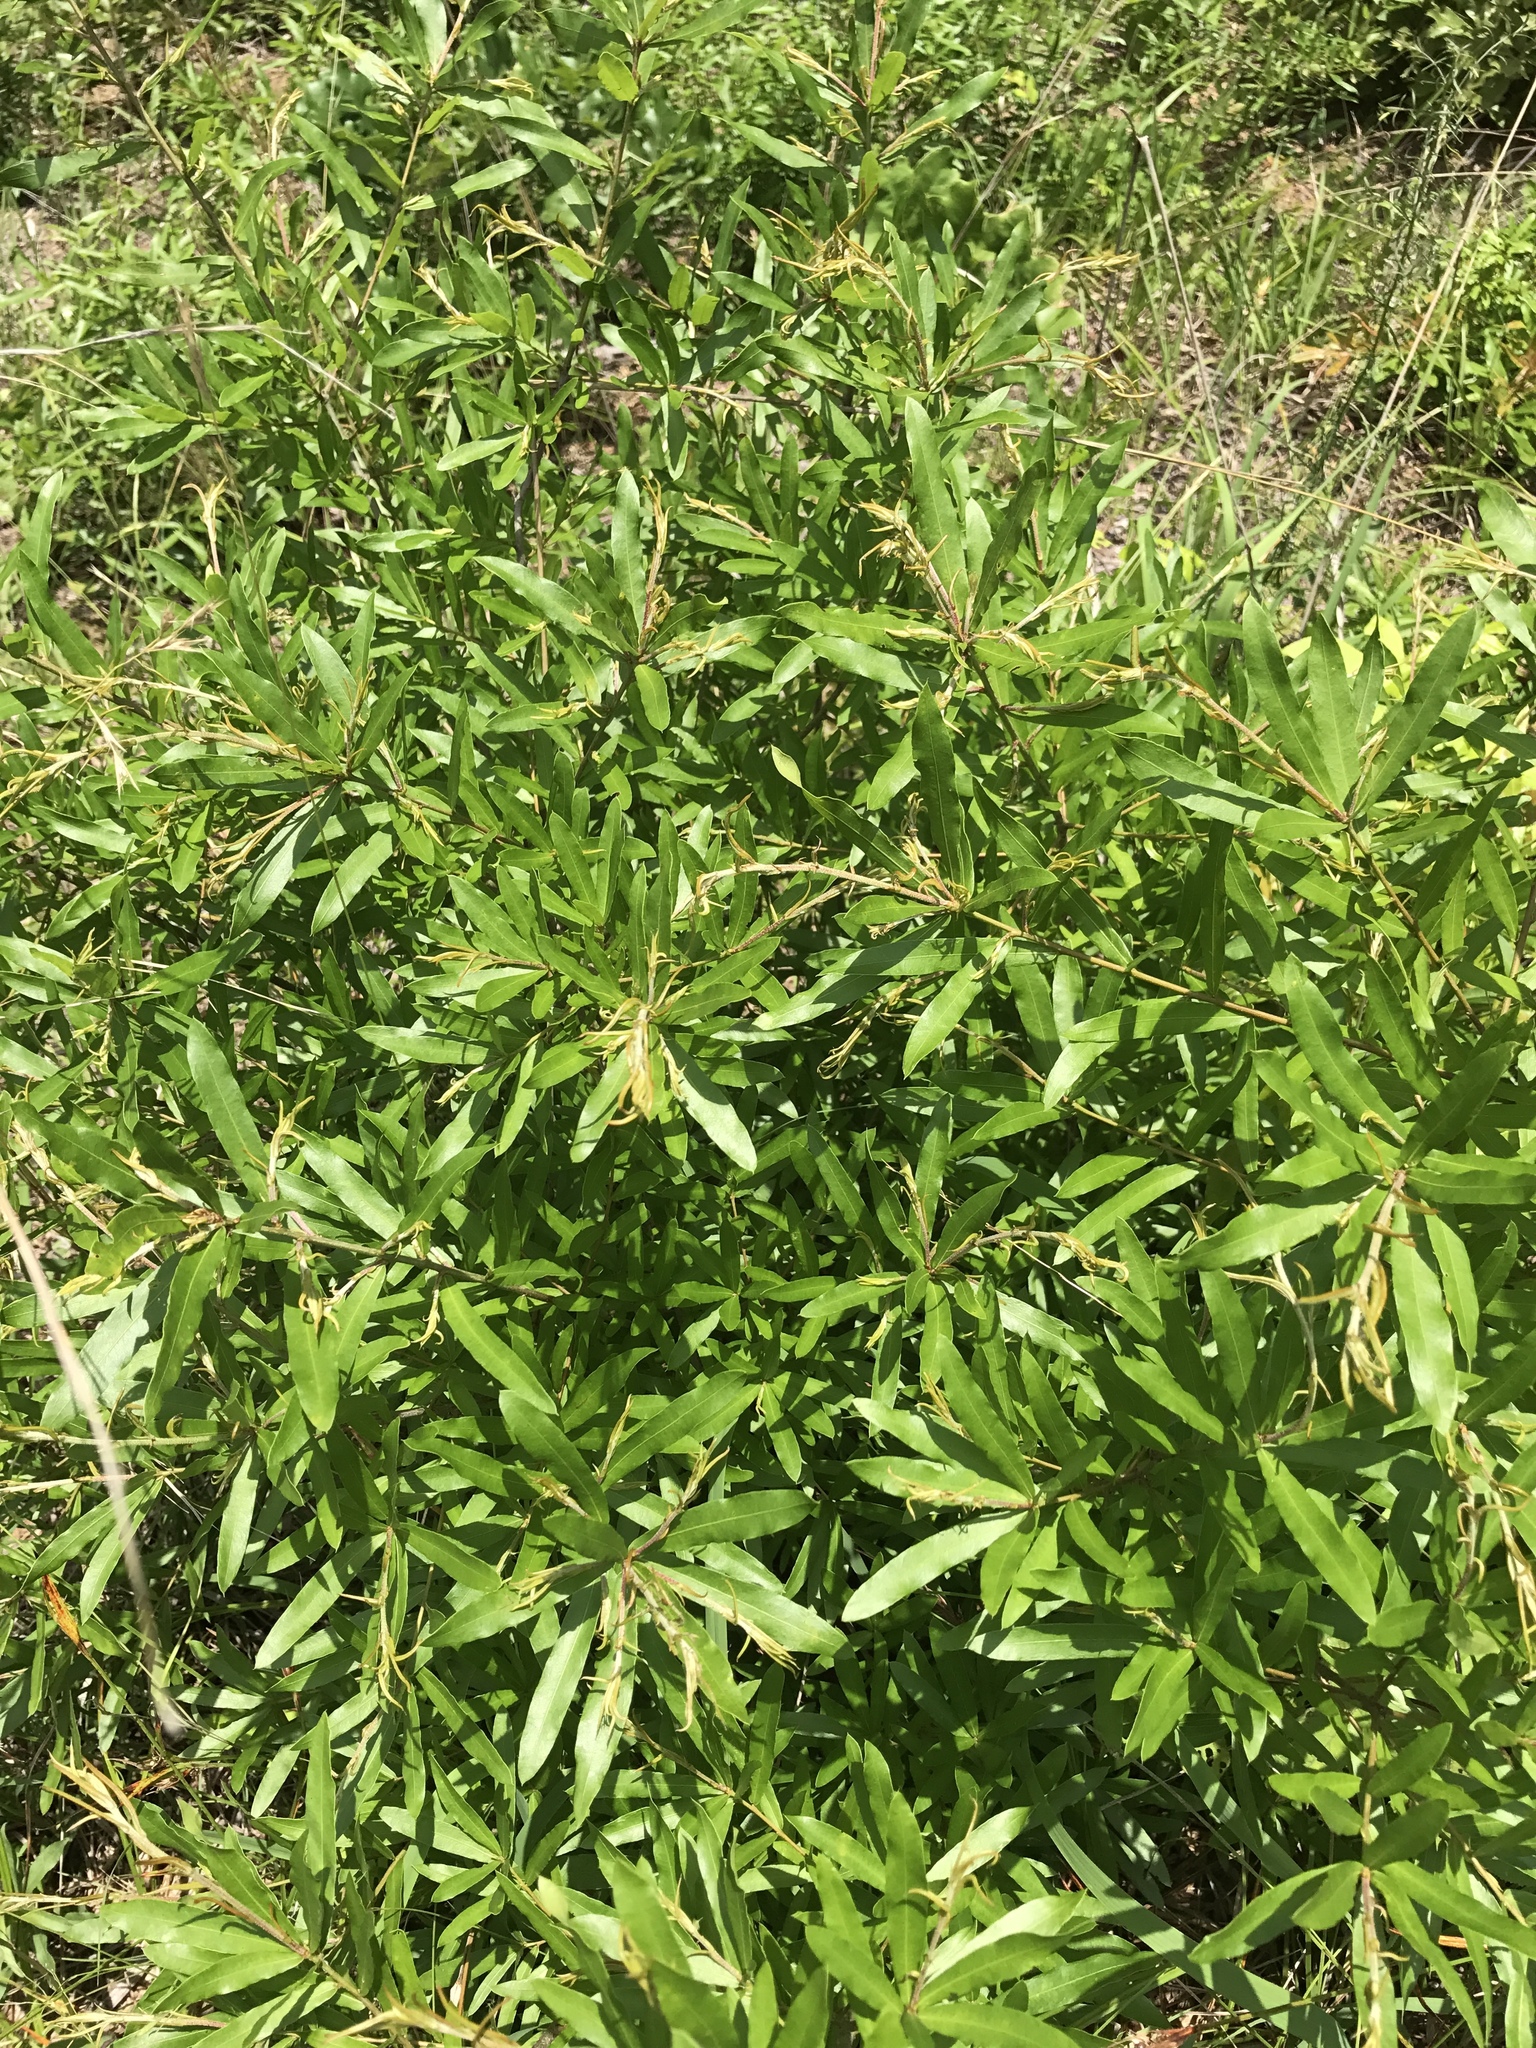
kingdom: Plantae
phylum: Tracheophyta
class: Magnoliopsida
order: Fagales
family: Fagaceae
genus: Quercus
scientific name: Quercus phellos
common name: Willow oak
